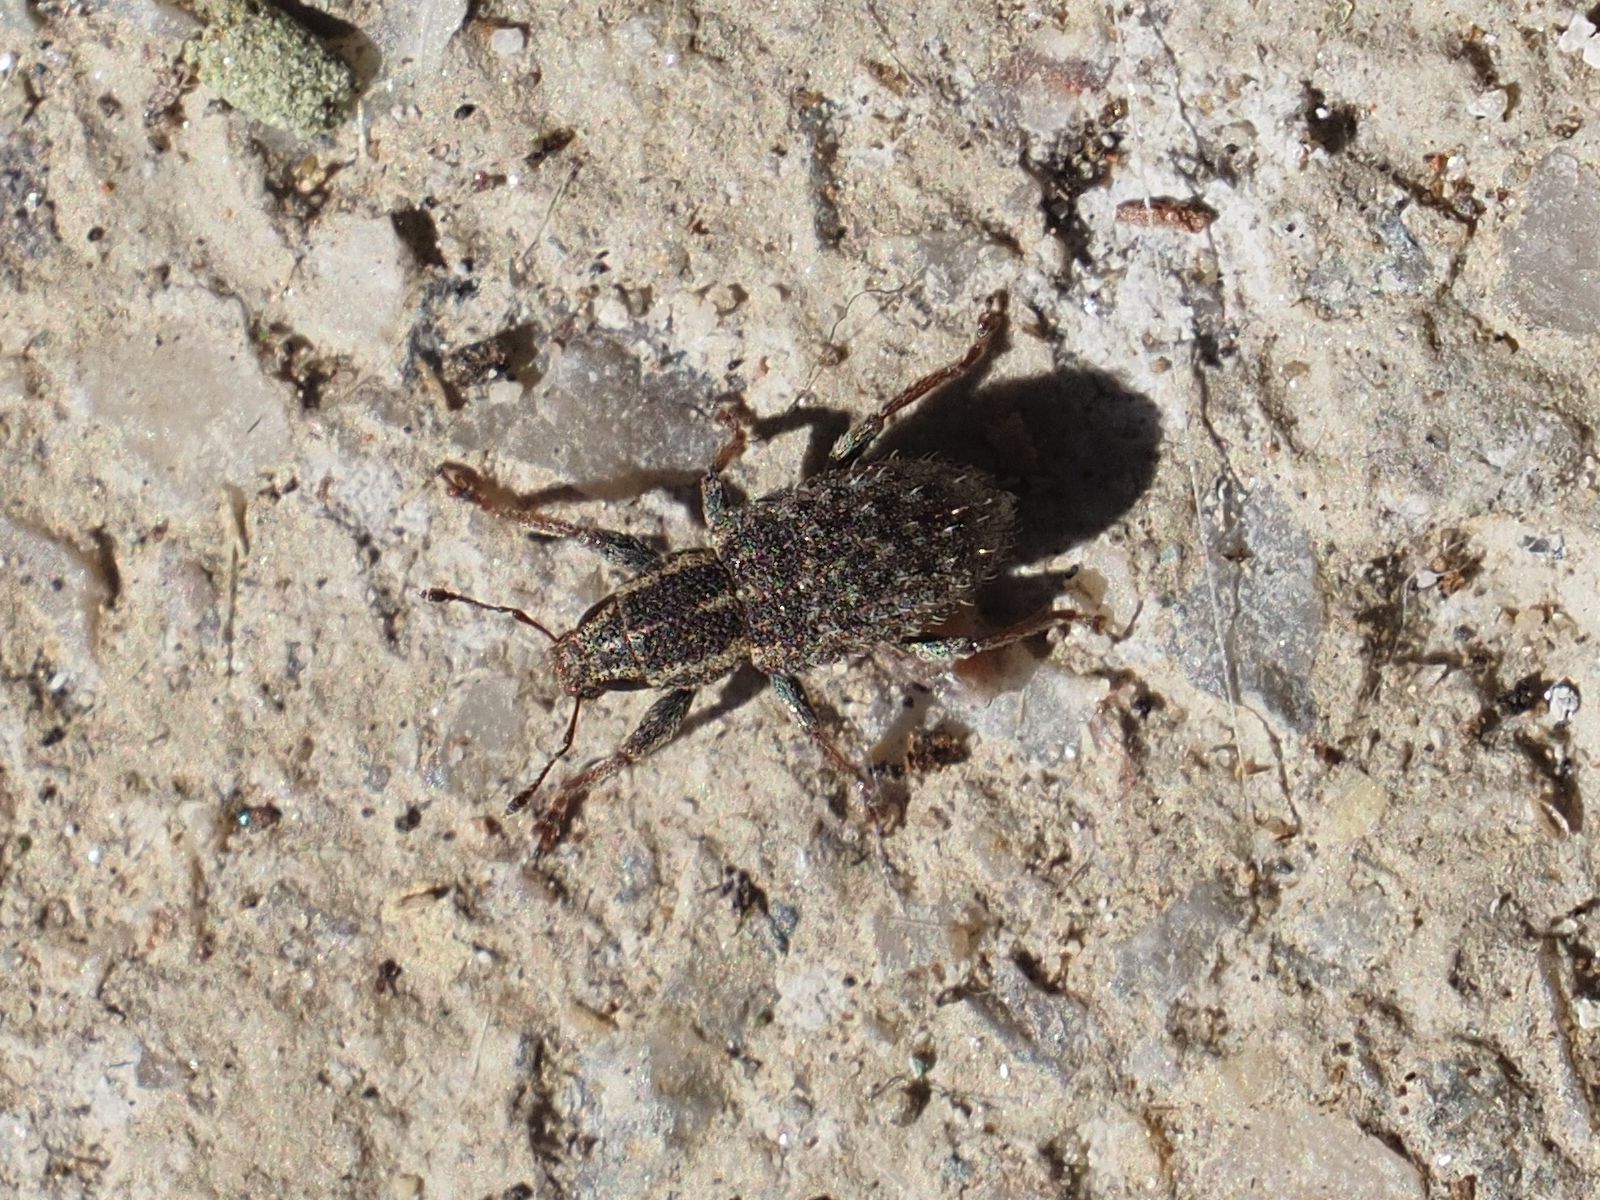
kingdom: Animalia
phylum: Arthropoda
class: Insecta
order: Coleoptera
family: Curculionidae
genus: Sitona
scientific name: Sitona hispidulus
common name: Clover weevil
